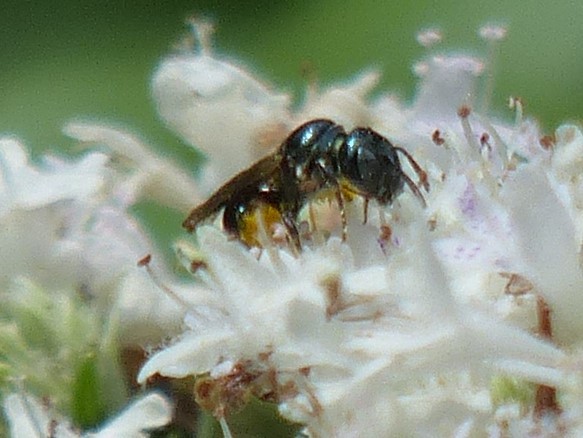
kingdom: Animalia
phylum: Arthropoda
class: Insecta
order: Hymenoptera
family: Apidae
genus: Zadontomerus
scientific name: Zadontomerus
